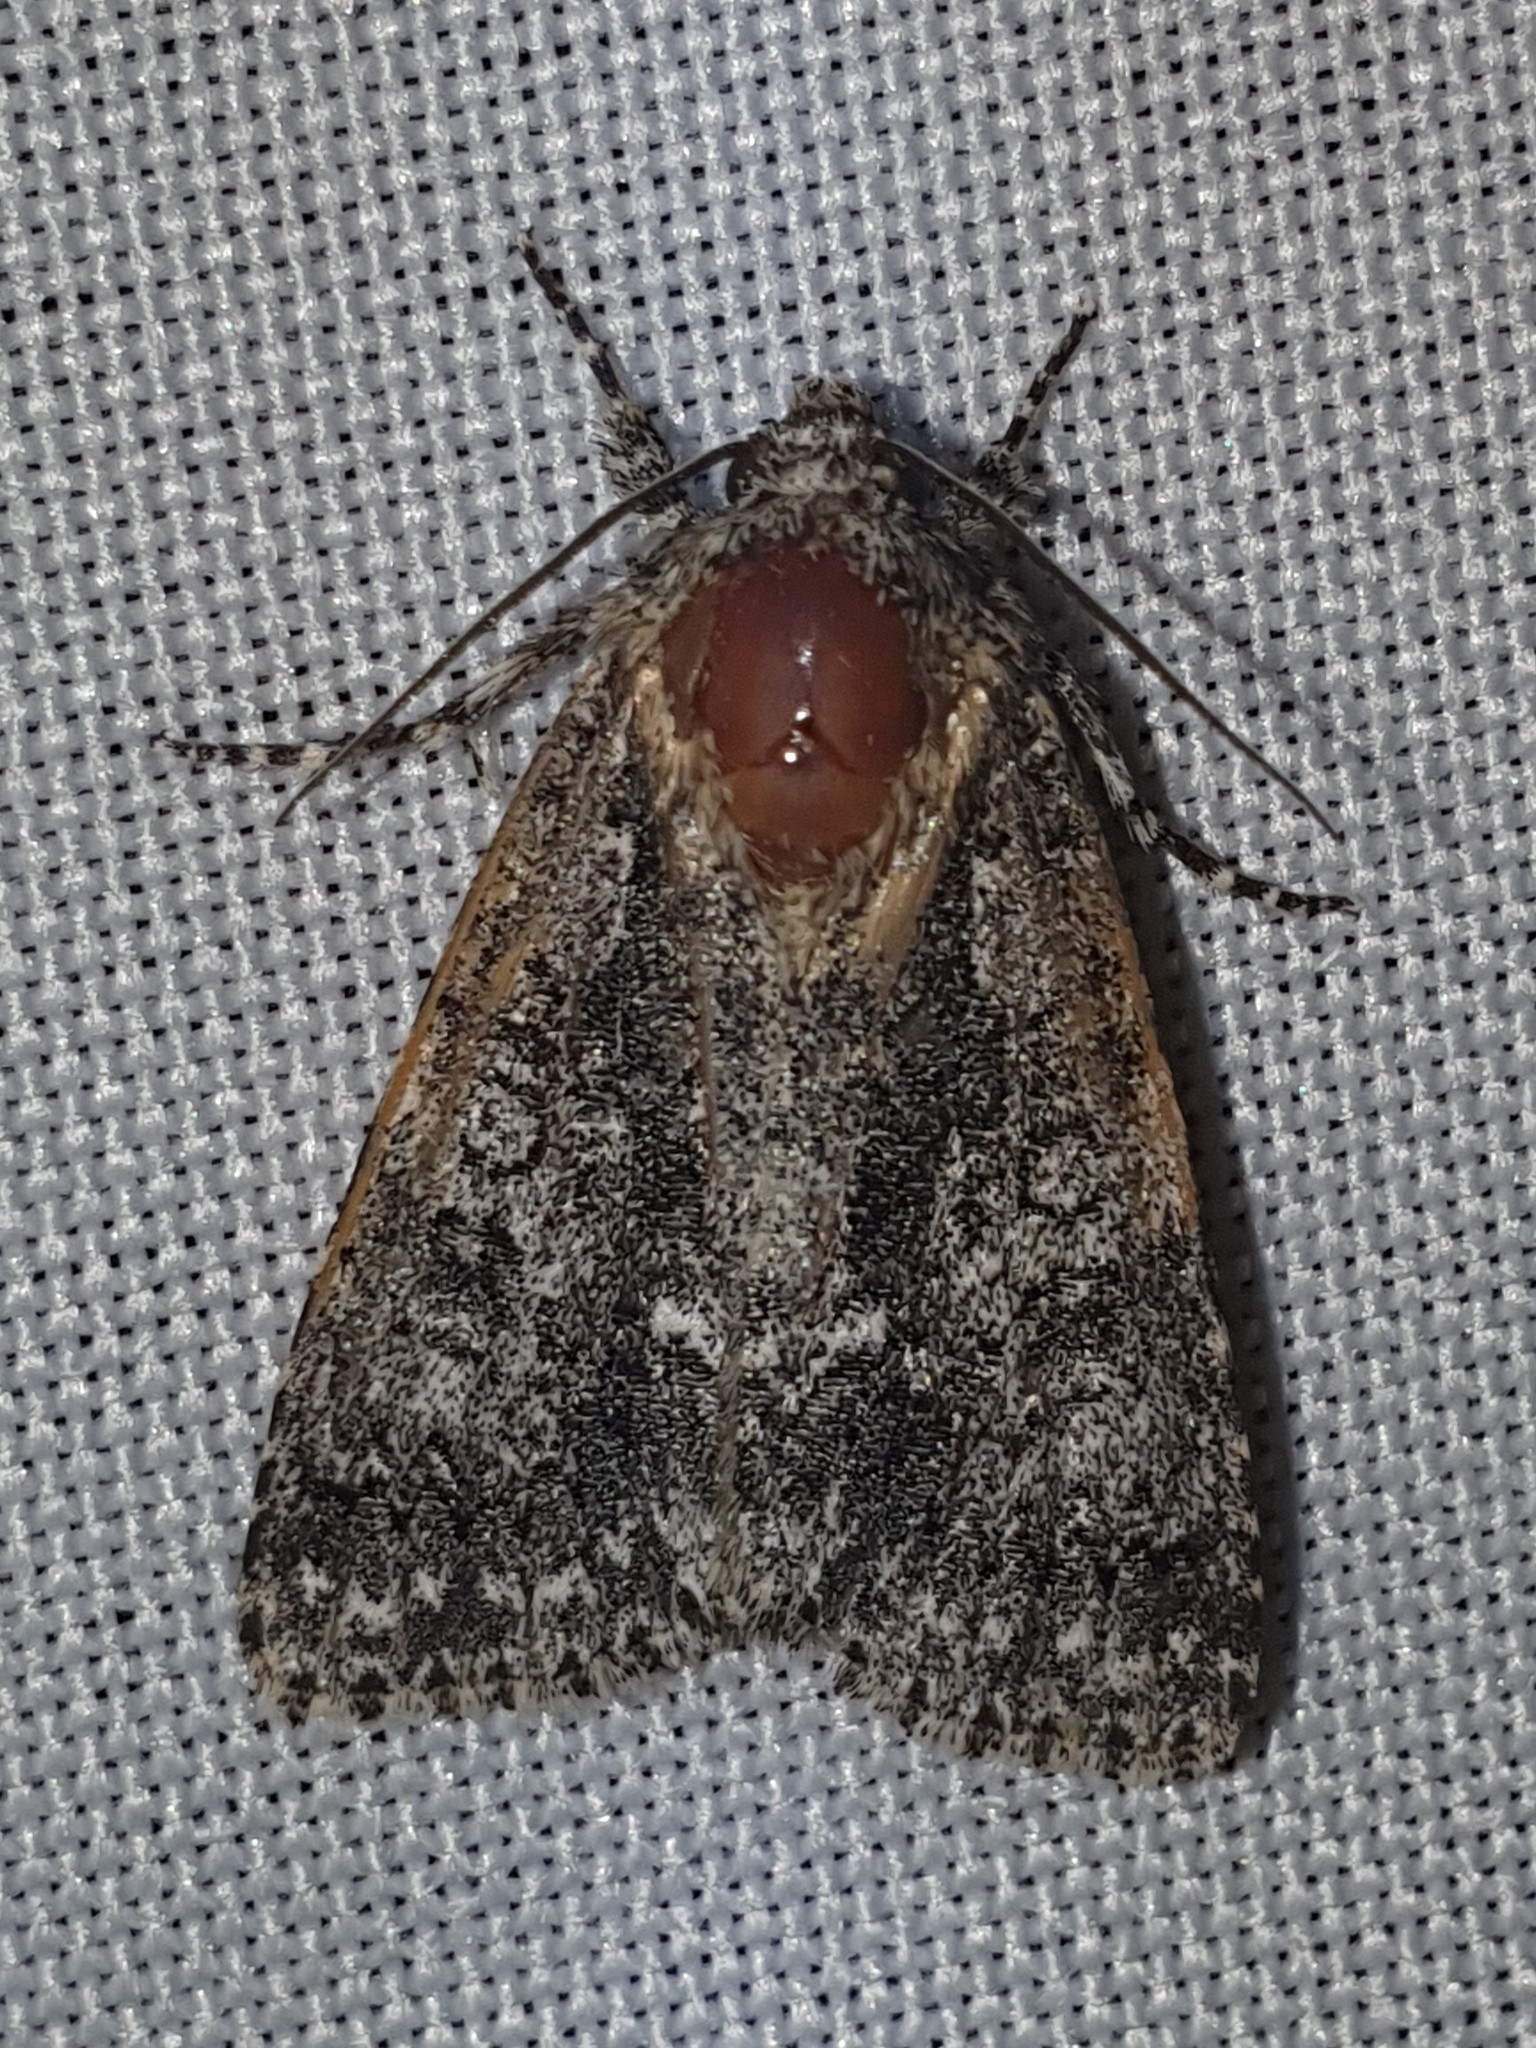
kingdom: Animalia
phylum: Arthropoda
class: Insecta
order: Lepidoptera
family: Noctuidae
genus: Acronicta
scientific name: Acronicta rumicis
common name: Knot grass
